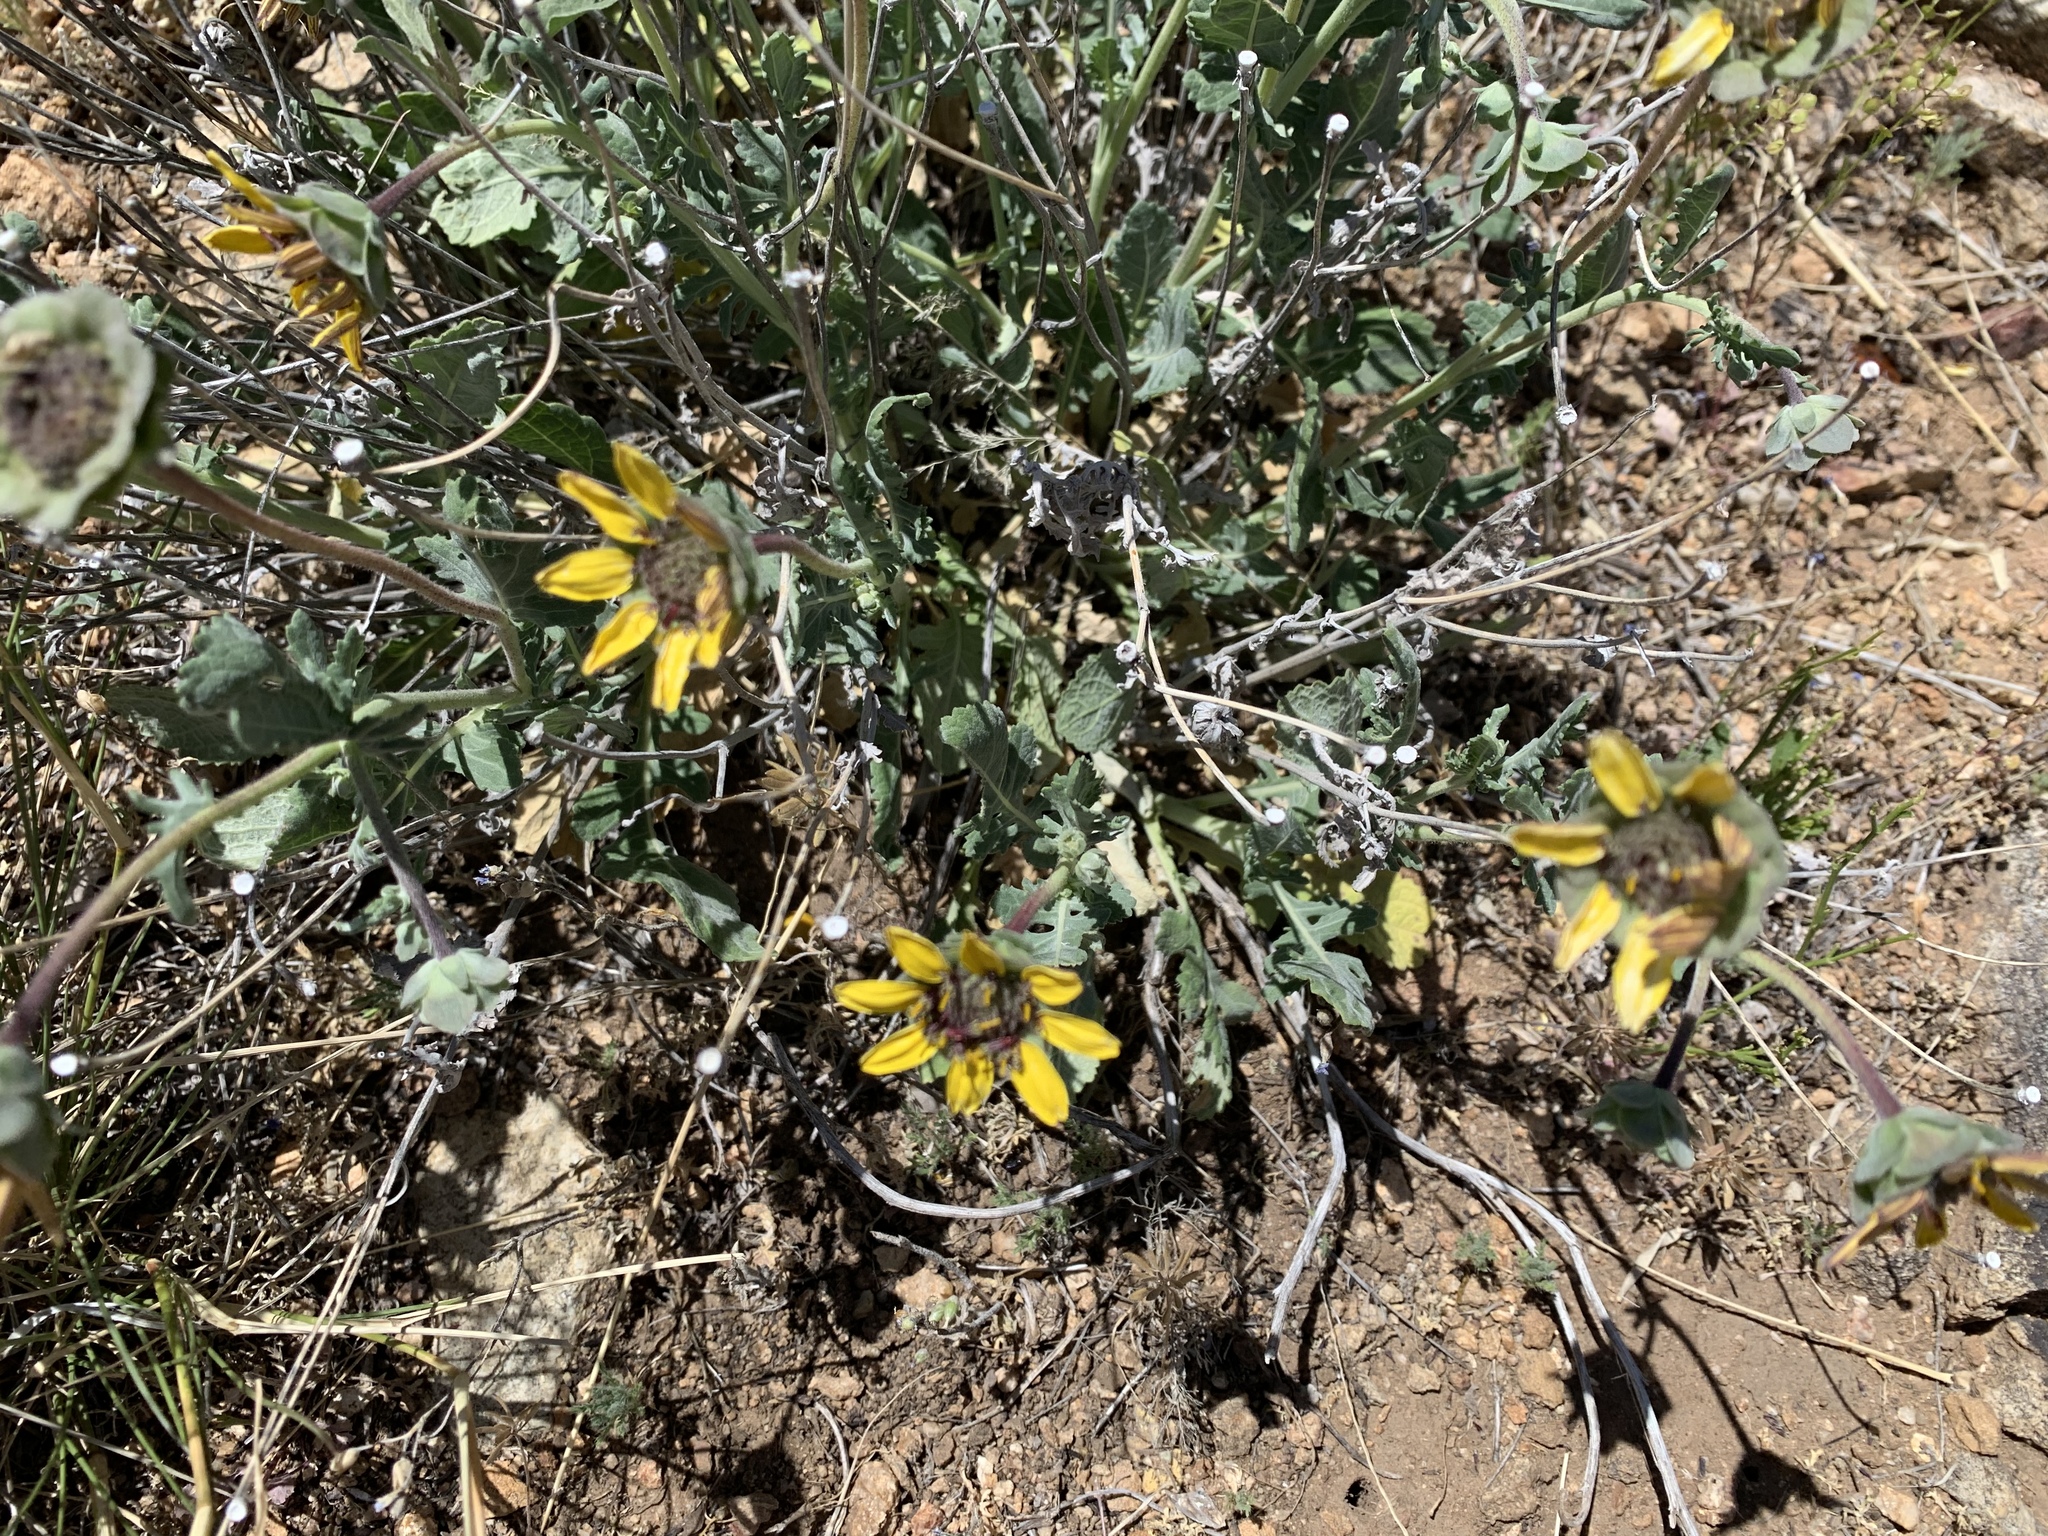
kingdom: Plantae
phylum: Tracheophyta
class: Magnoliopsida
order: Asterales
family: Asteraceae
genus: Berlandiera
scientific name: Berlandiera lyrata
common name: Chocolate-flower
